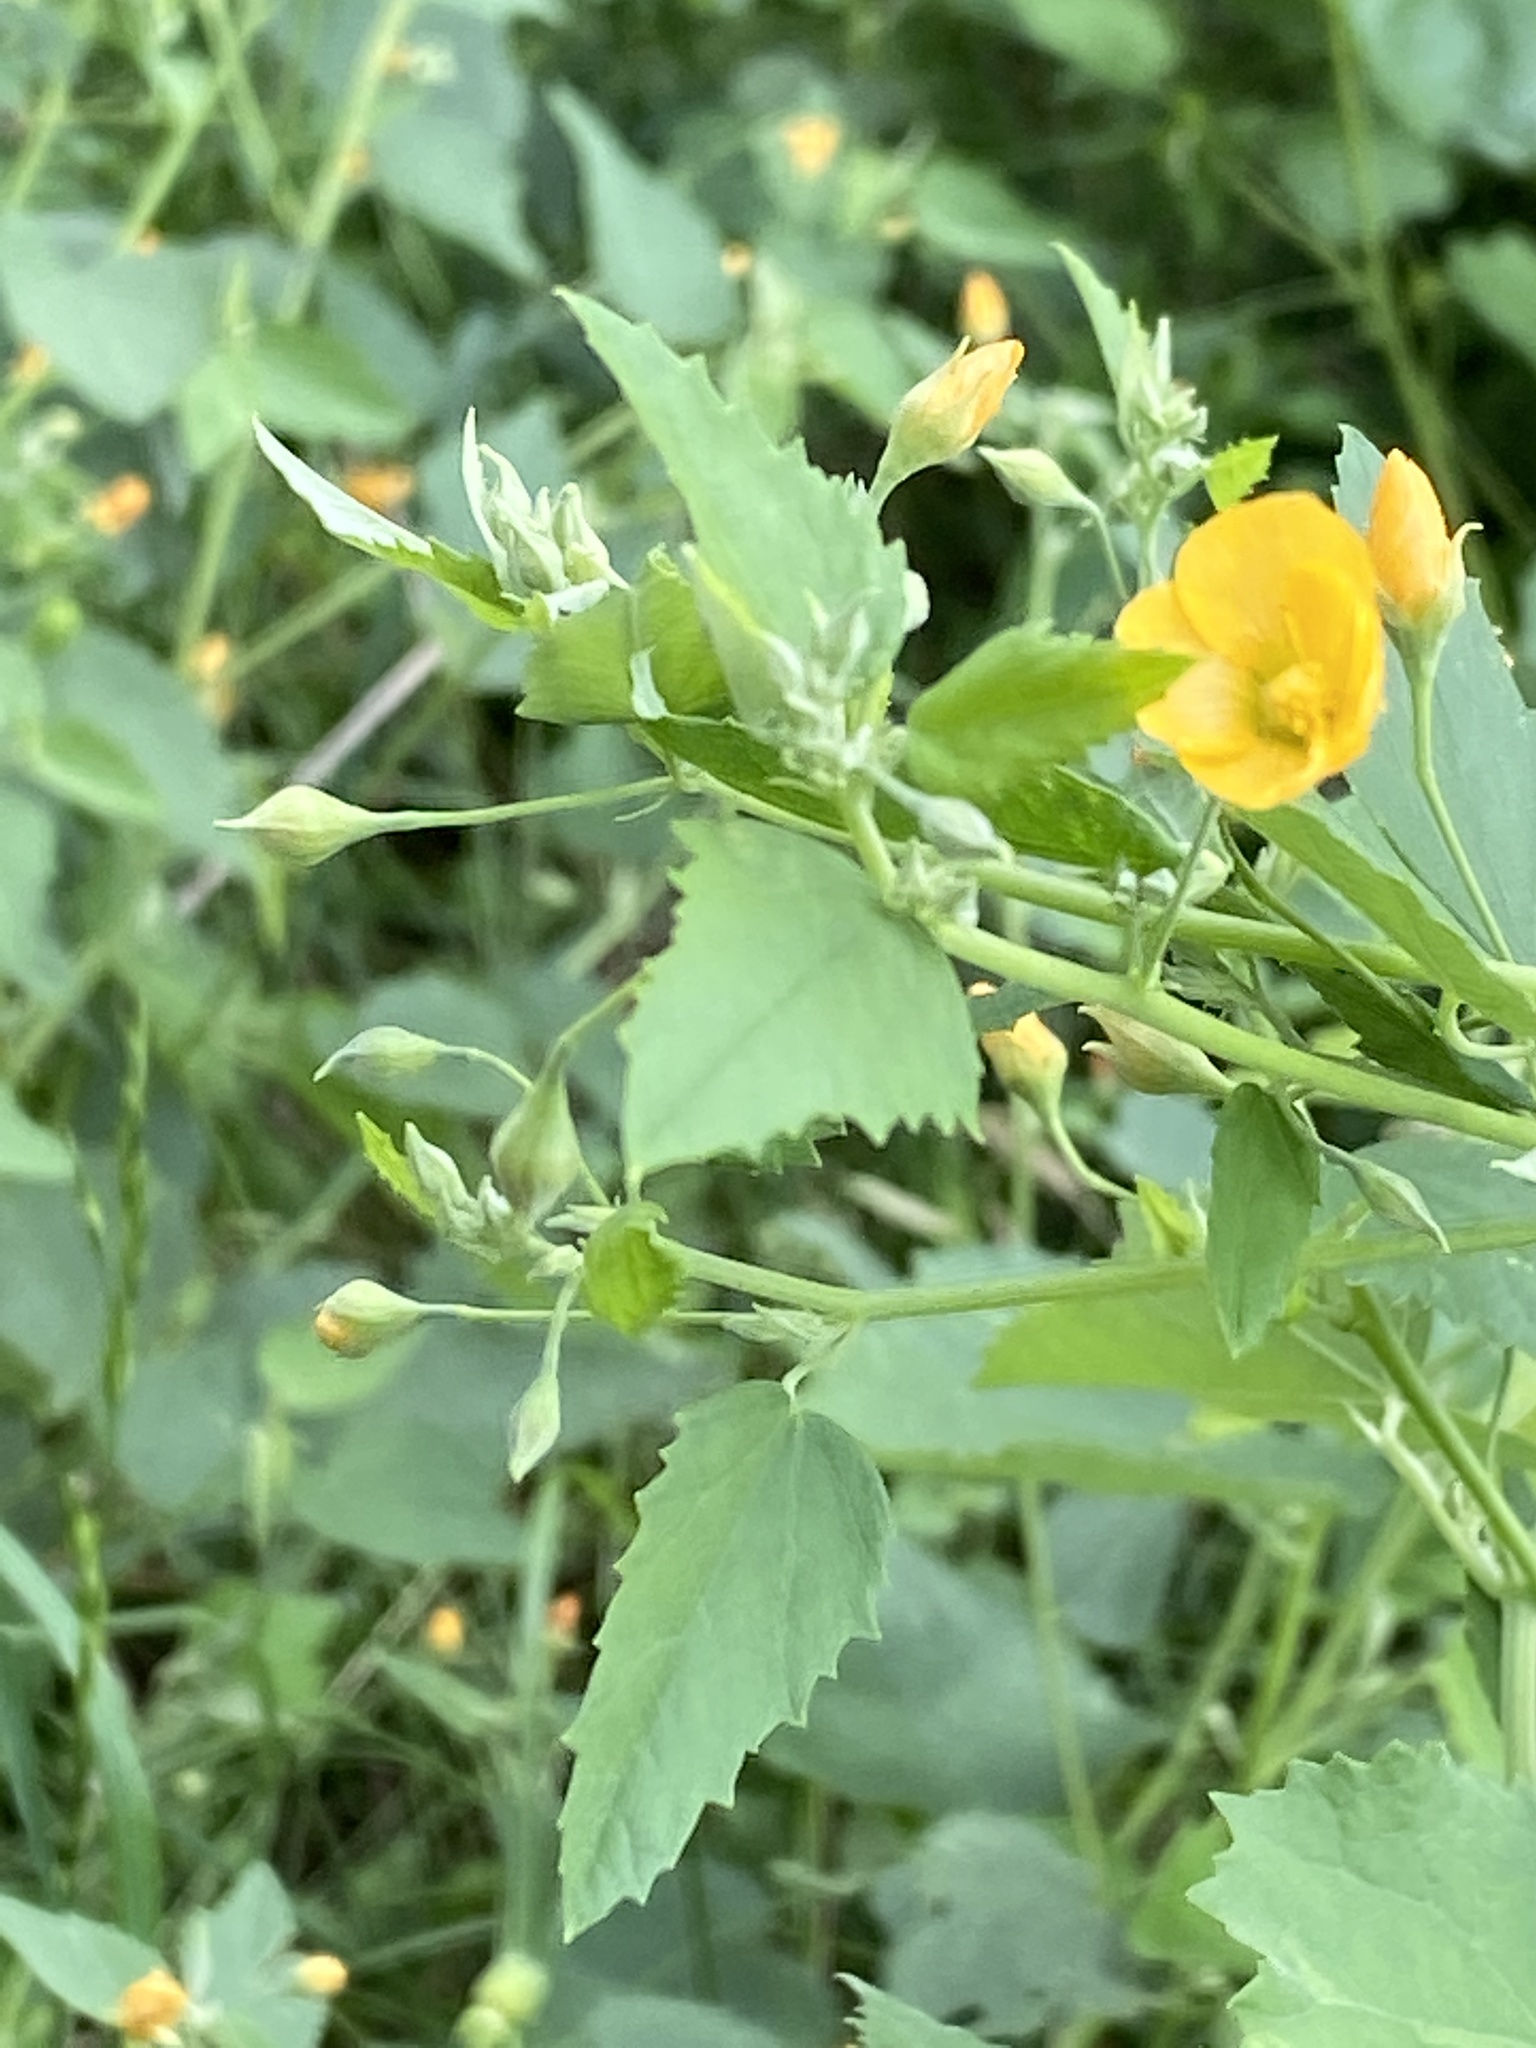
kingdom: Plantae
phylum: Tracheophyta
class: Magnoliopsida
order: Malvales
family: Malvaceae
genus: Abutilon
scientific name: Abutilon fruticosum
